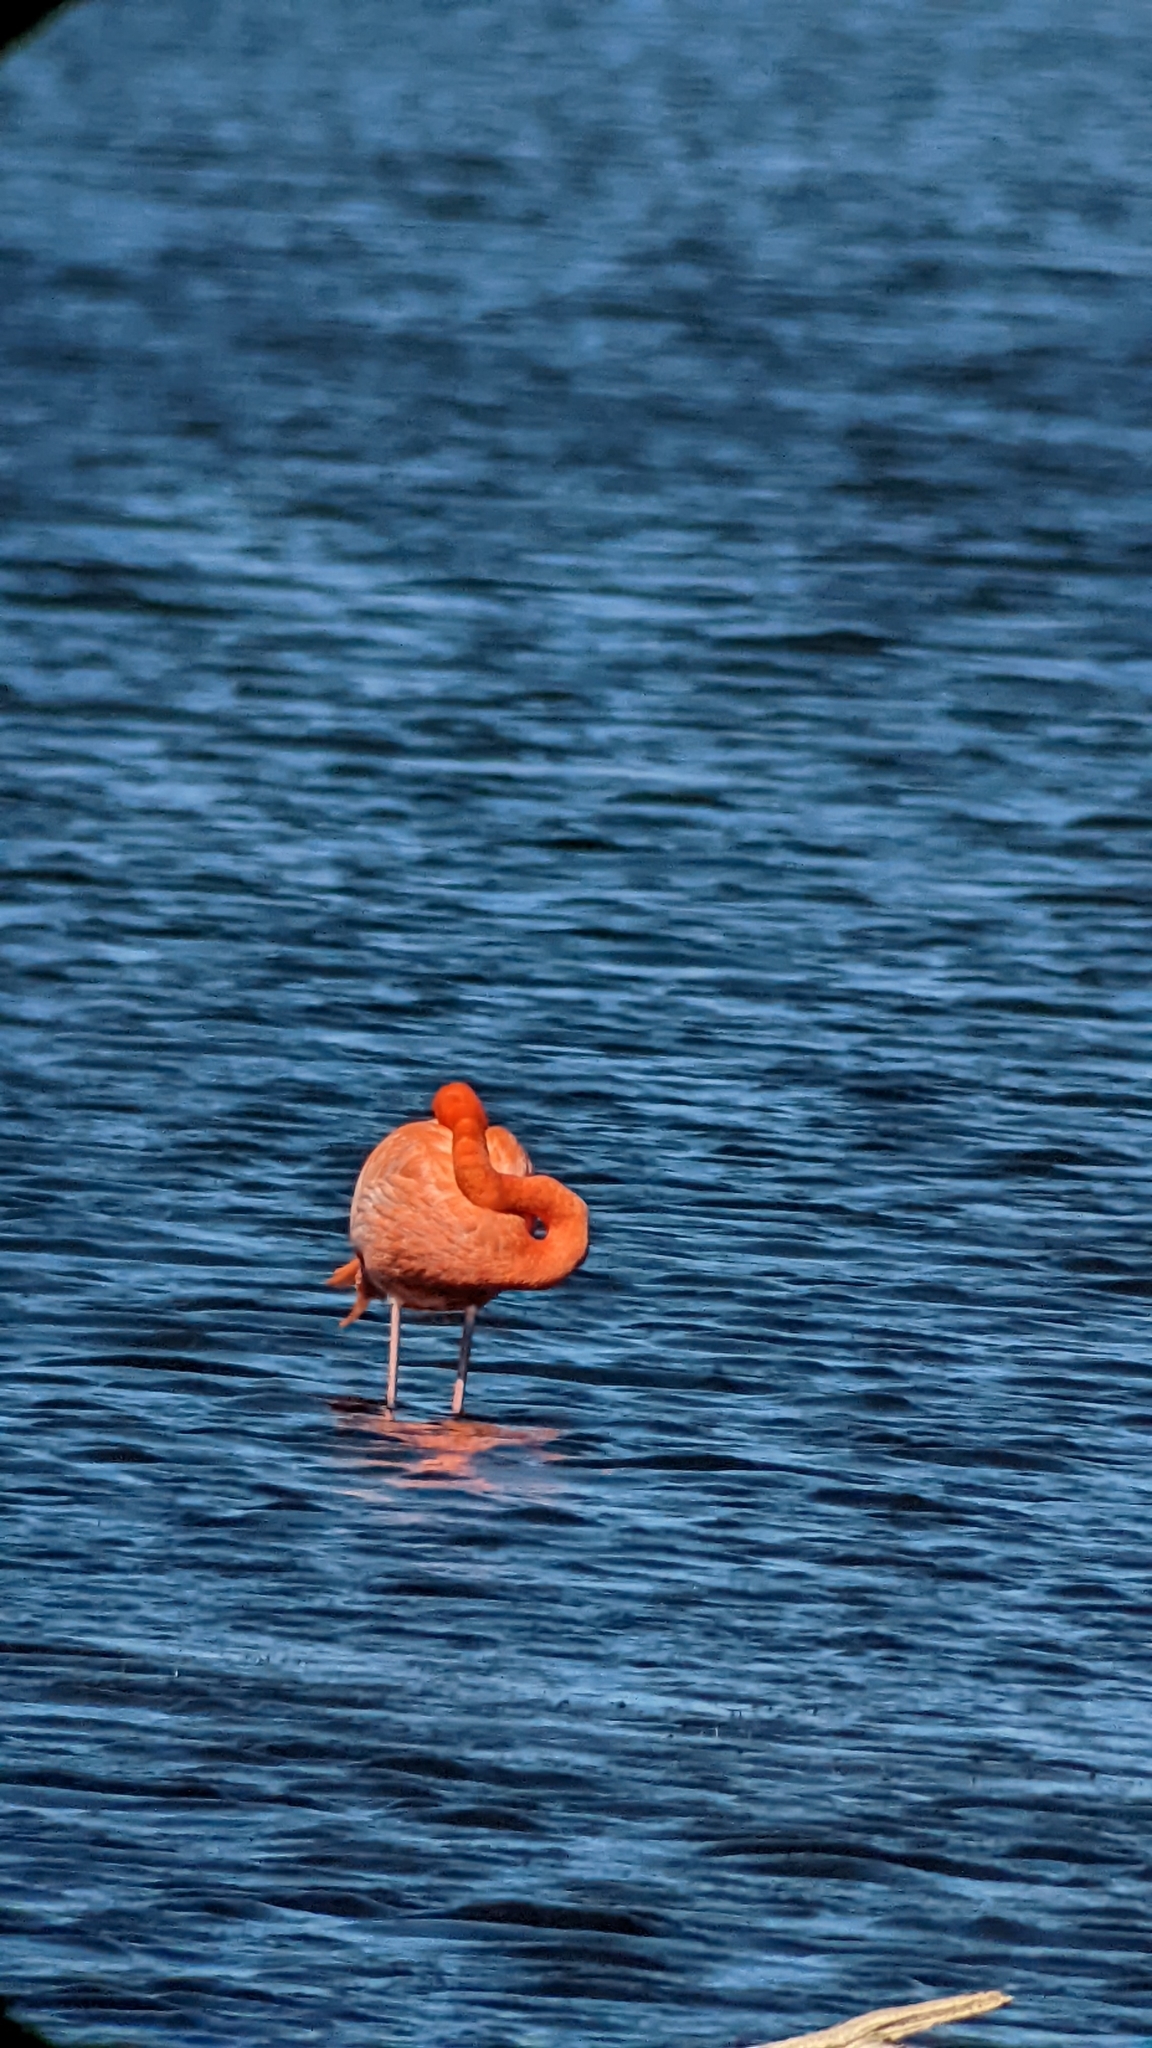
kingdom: Animalia
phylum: Chordata
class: Aves
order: Phoenicopteriformes
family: Phoenicopteridae
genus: Phoenicopterus
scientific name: Phoenicopterus ruber
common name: American flamingo
